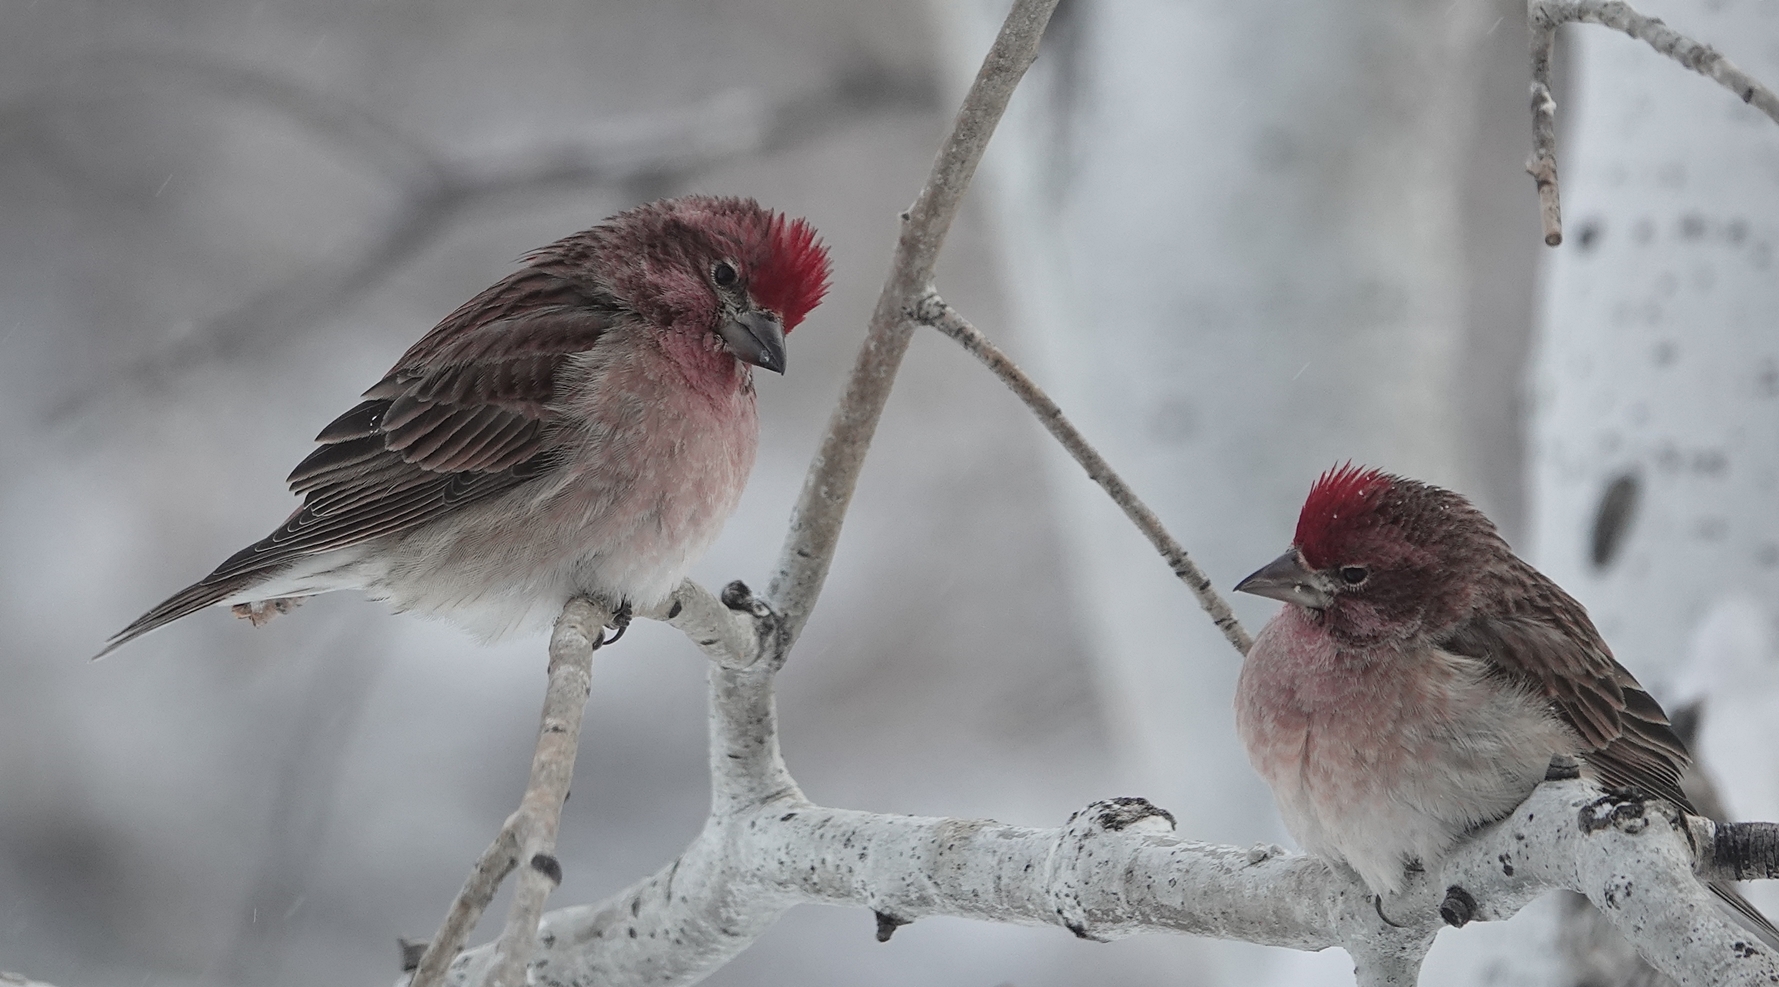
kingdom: Animalia
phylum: Chordata
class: Aves
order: Passeriformes
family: Fringillidae
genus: Haemorhous
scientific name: Haemorhous cassinii
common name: Cassin's finch
